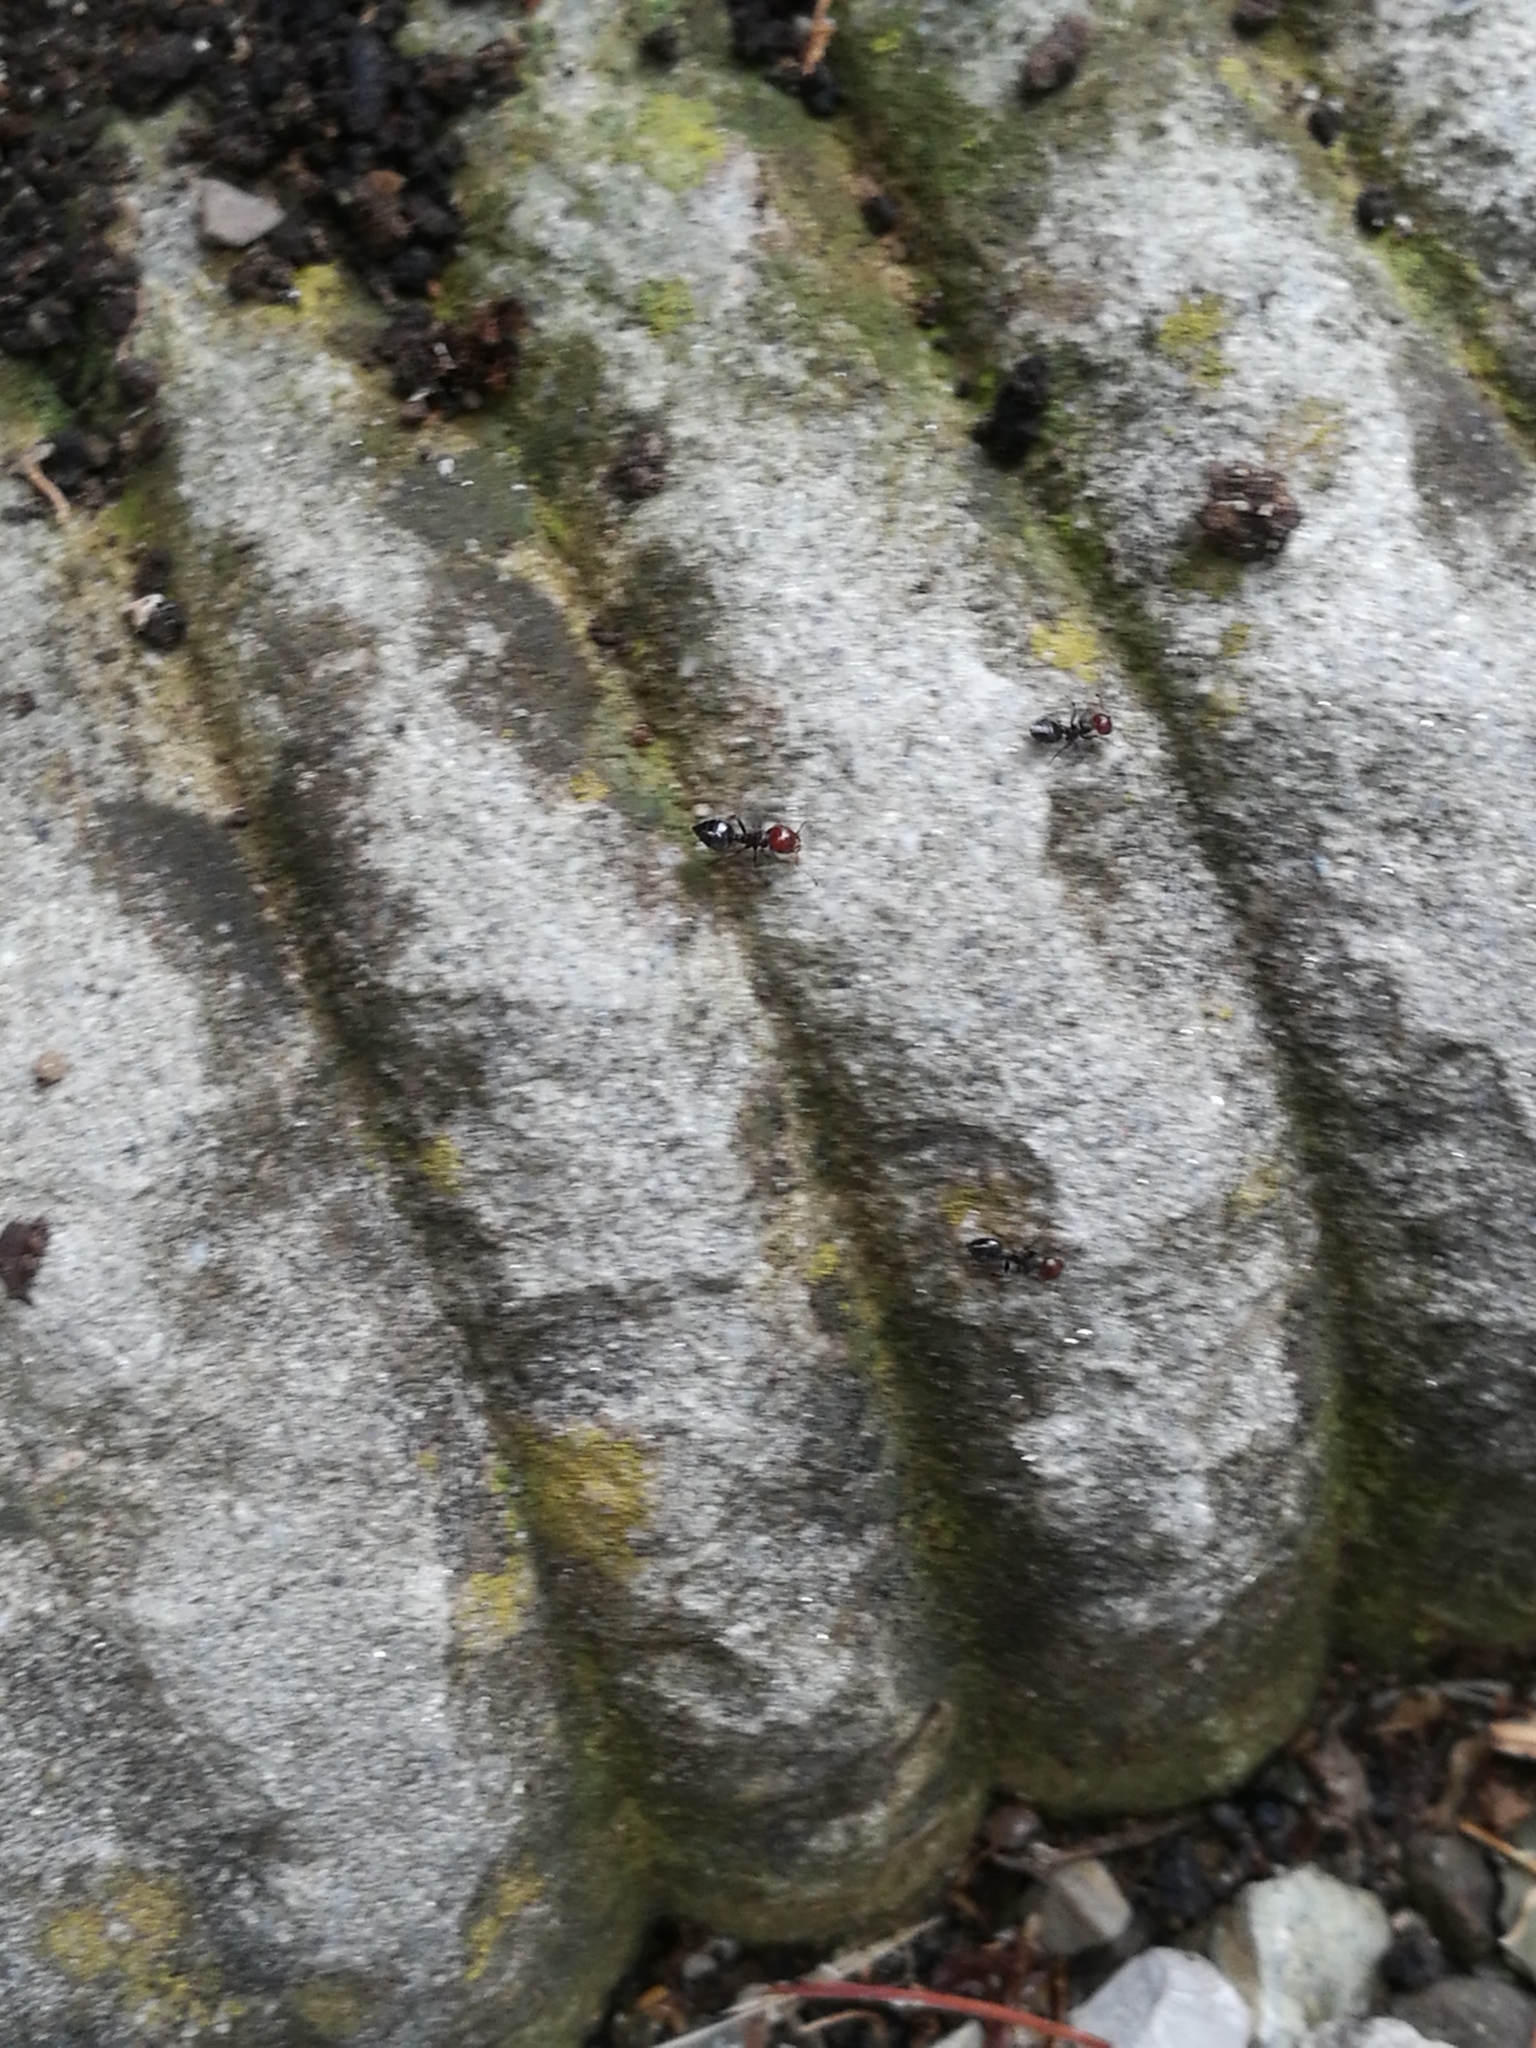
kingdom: Animalia
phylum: Arthropoda
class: Insecta
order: Hymenoptera
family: Formicidae
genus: Crematogaster
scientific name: Crematogaster scutellaris
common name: Fourmi du liège
